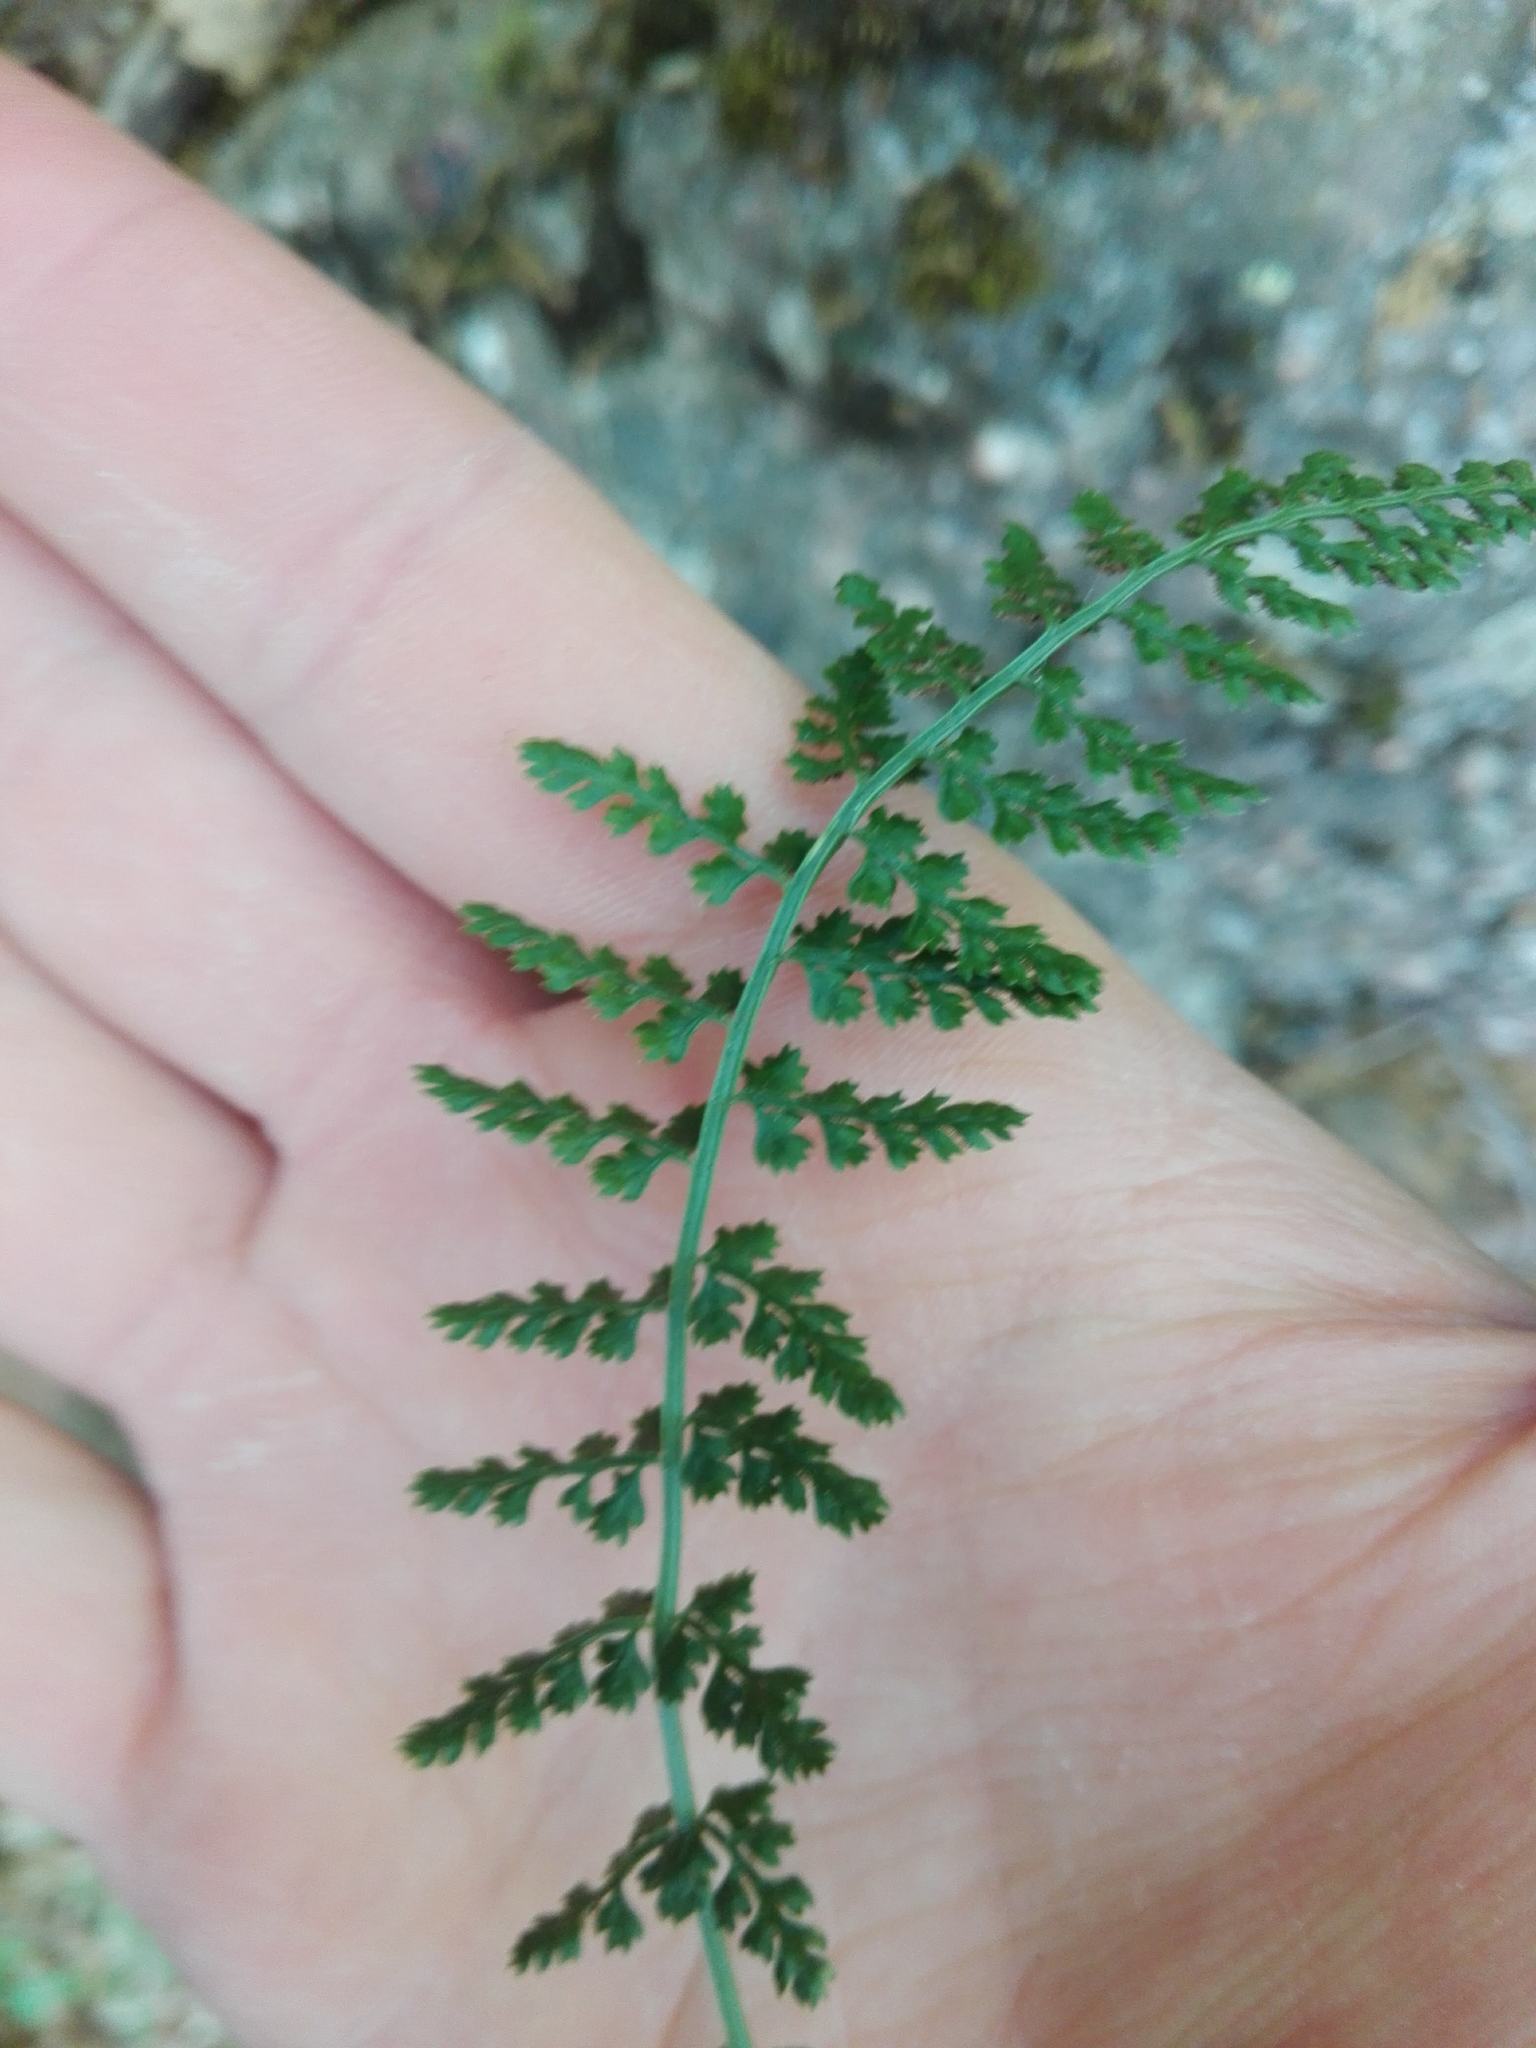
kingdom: Plantae
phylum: Tracheophyta
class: Polypodiopsida
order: Polypodiales
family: Aspleniaceae
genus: Asplenium
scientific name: Asplenium fontanum
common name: Fountain spleenwort
